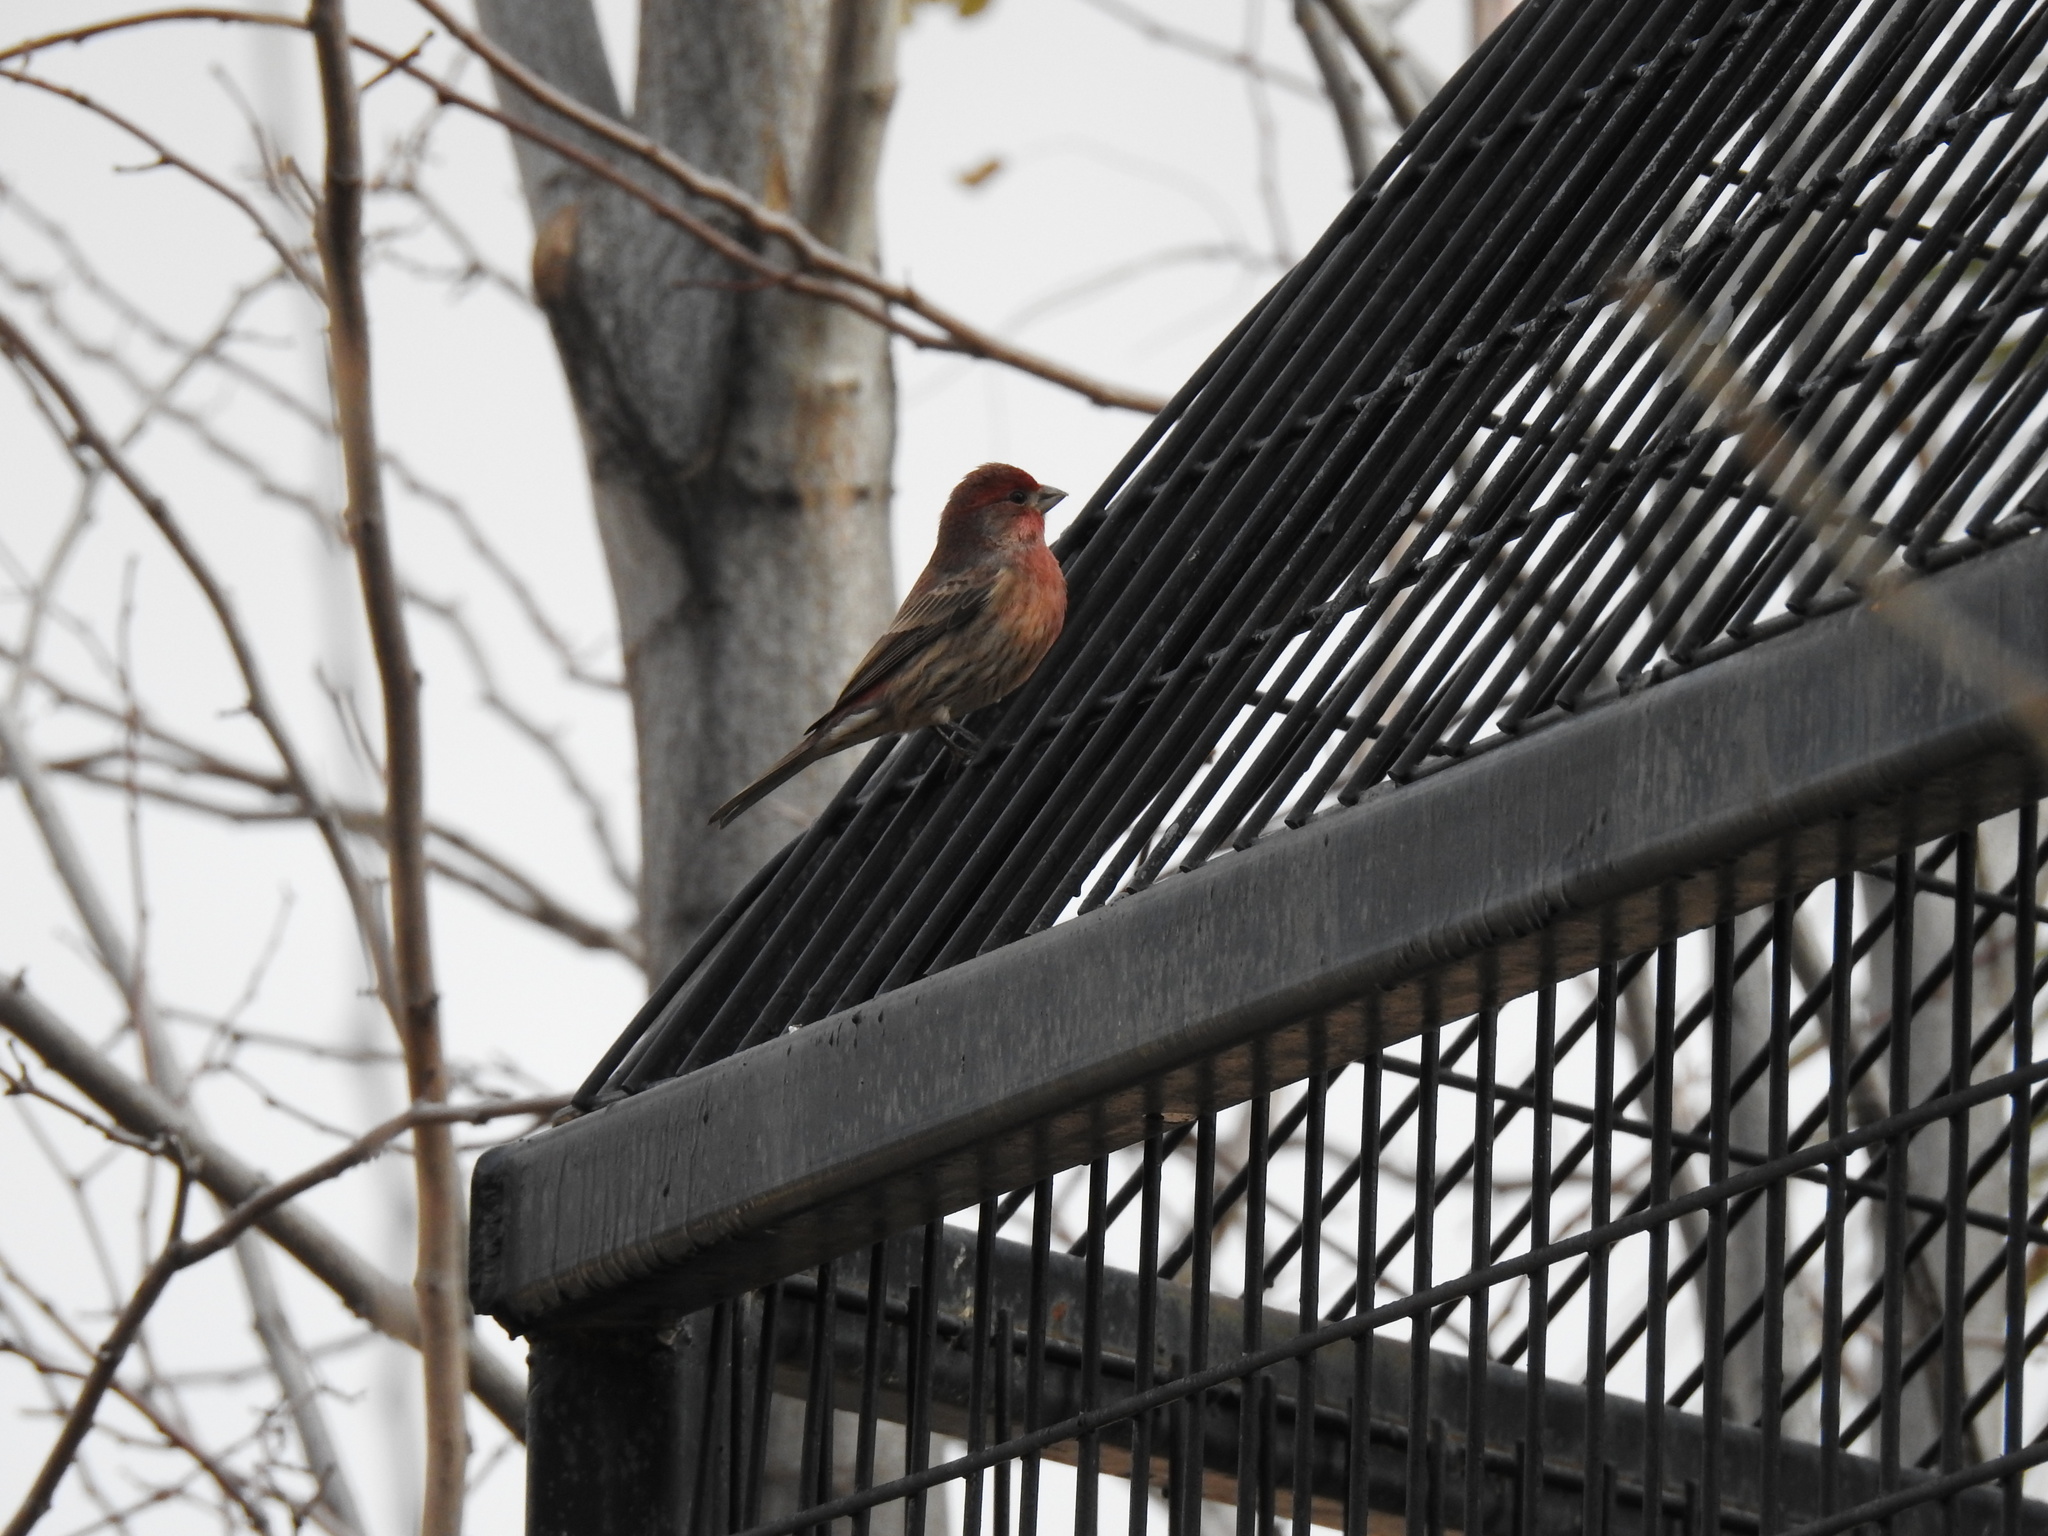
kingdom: Animalia
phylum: Chordata
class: Aves
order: Passeriformes
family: Fringillidae
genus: Haemorhous
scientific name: Haemorhous mexicanus
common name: House finch
